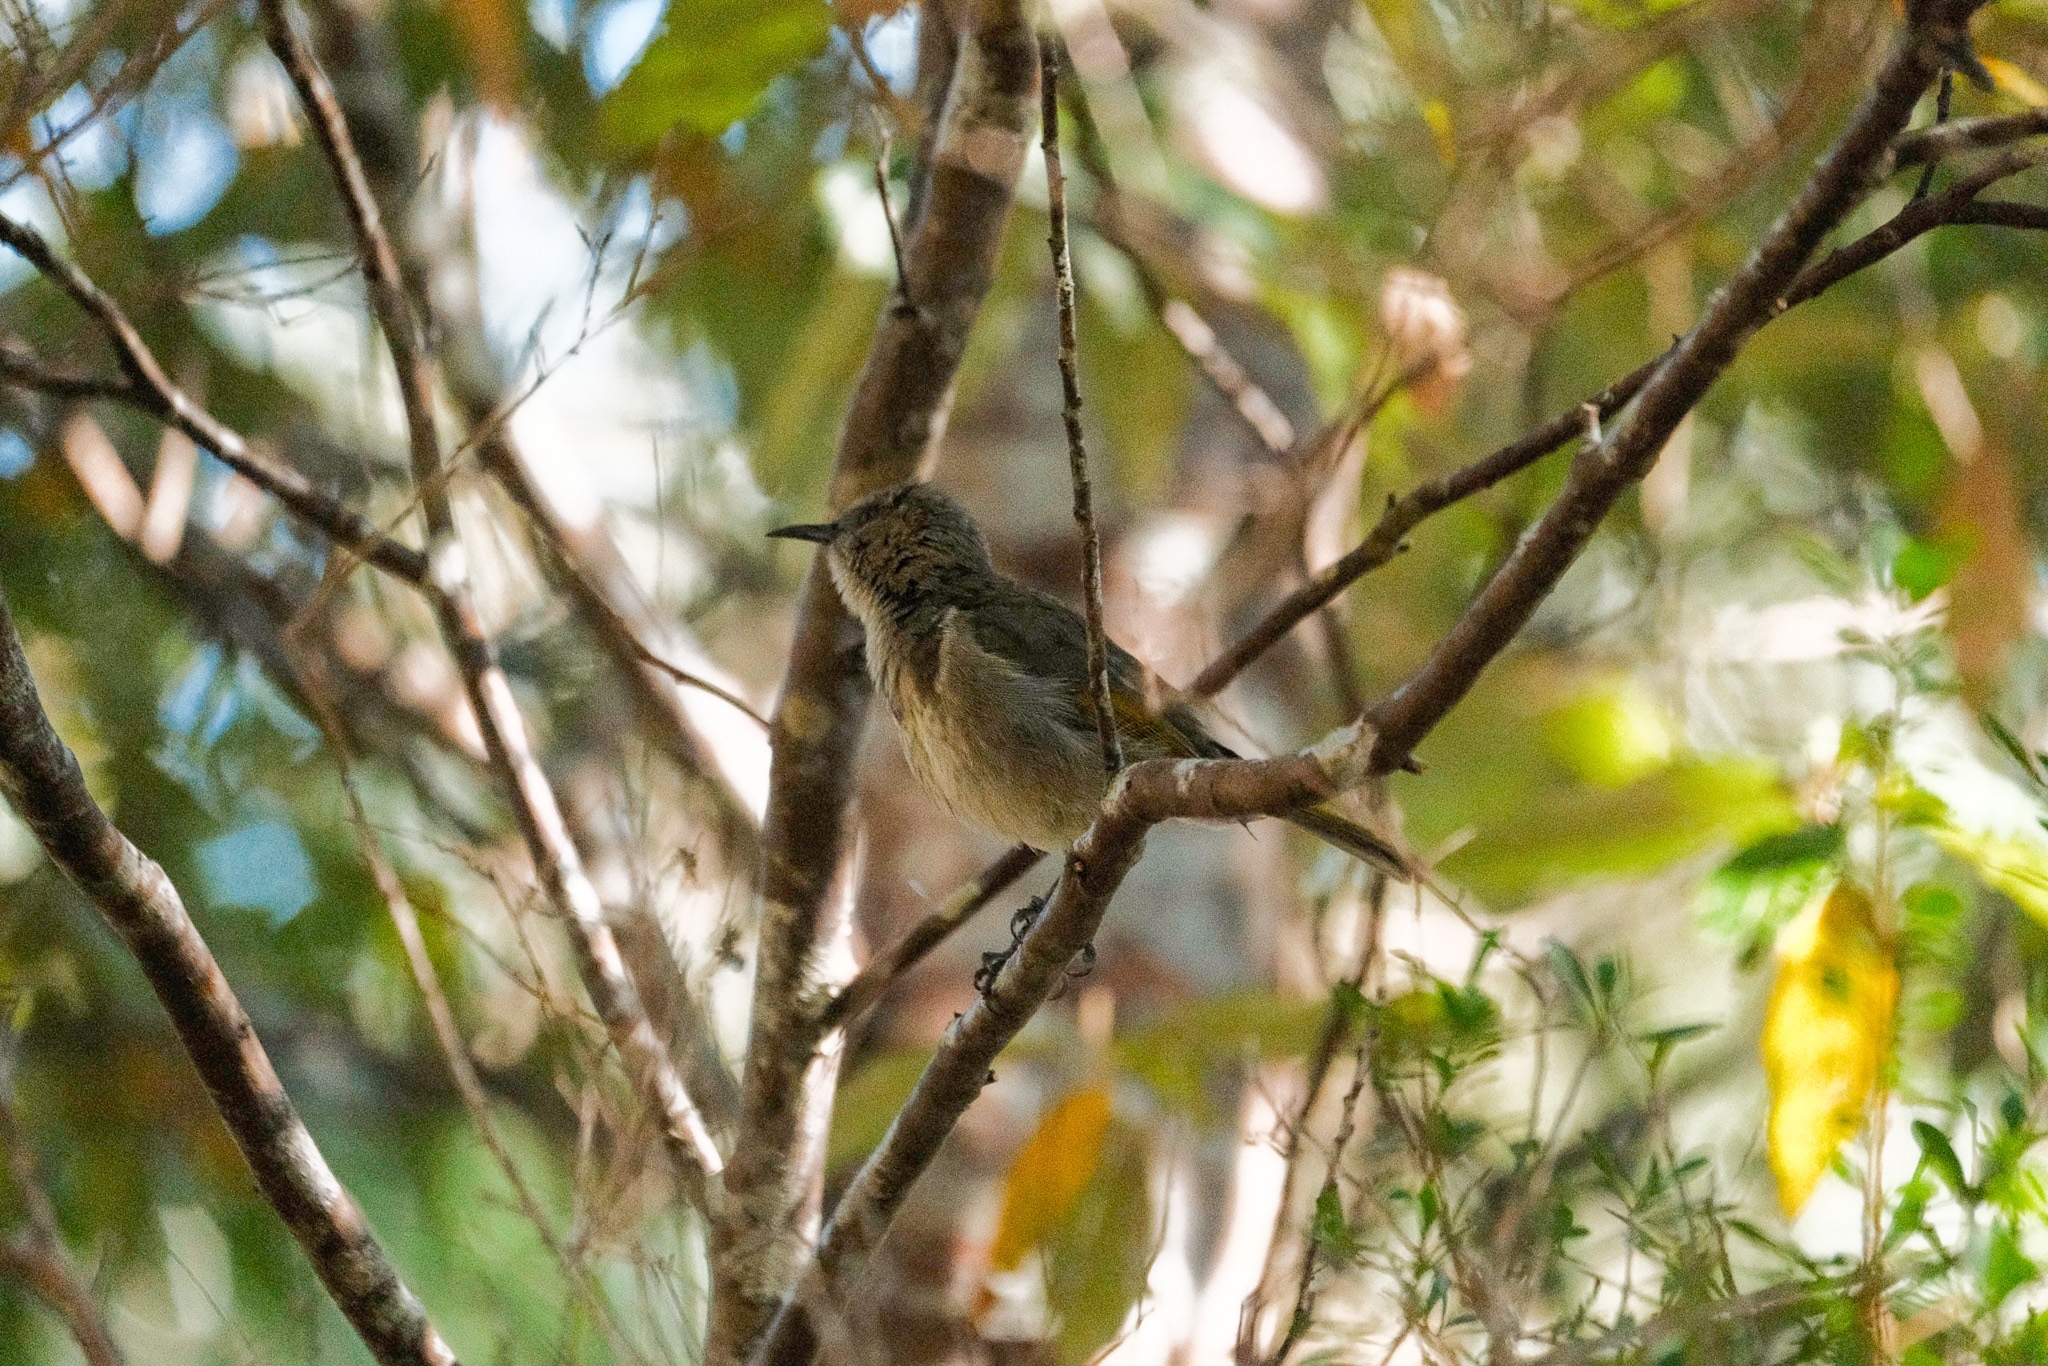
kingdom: Animalia
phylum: Chordata
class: Aves
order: Passeriformes
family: Meliphagidae
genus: Phylidonyris
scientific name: Phylidonyris pyrrhopterus
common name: Crescent honeyeater
